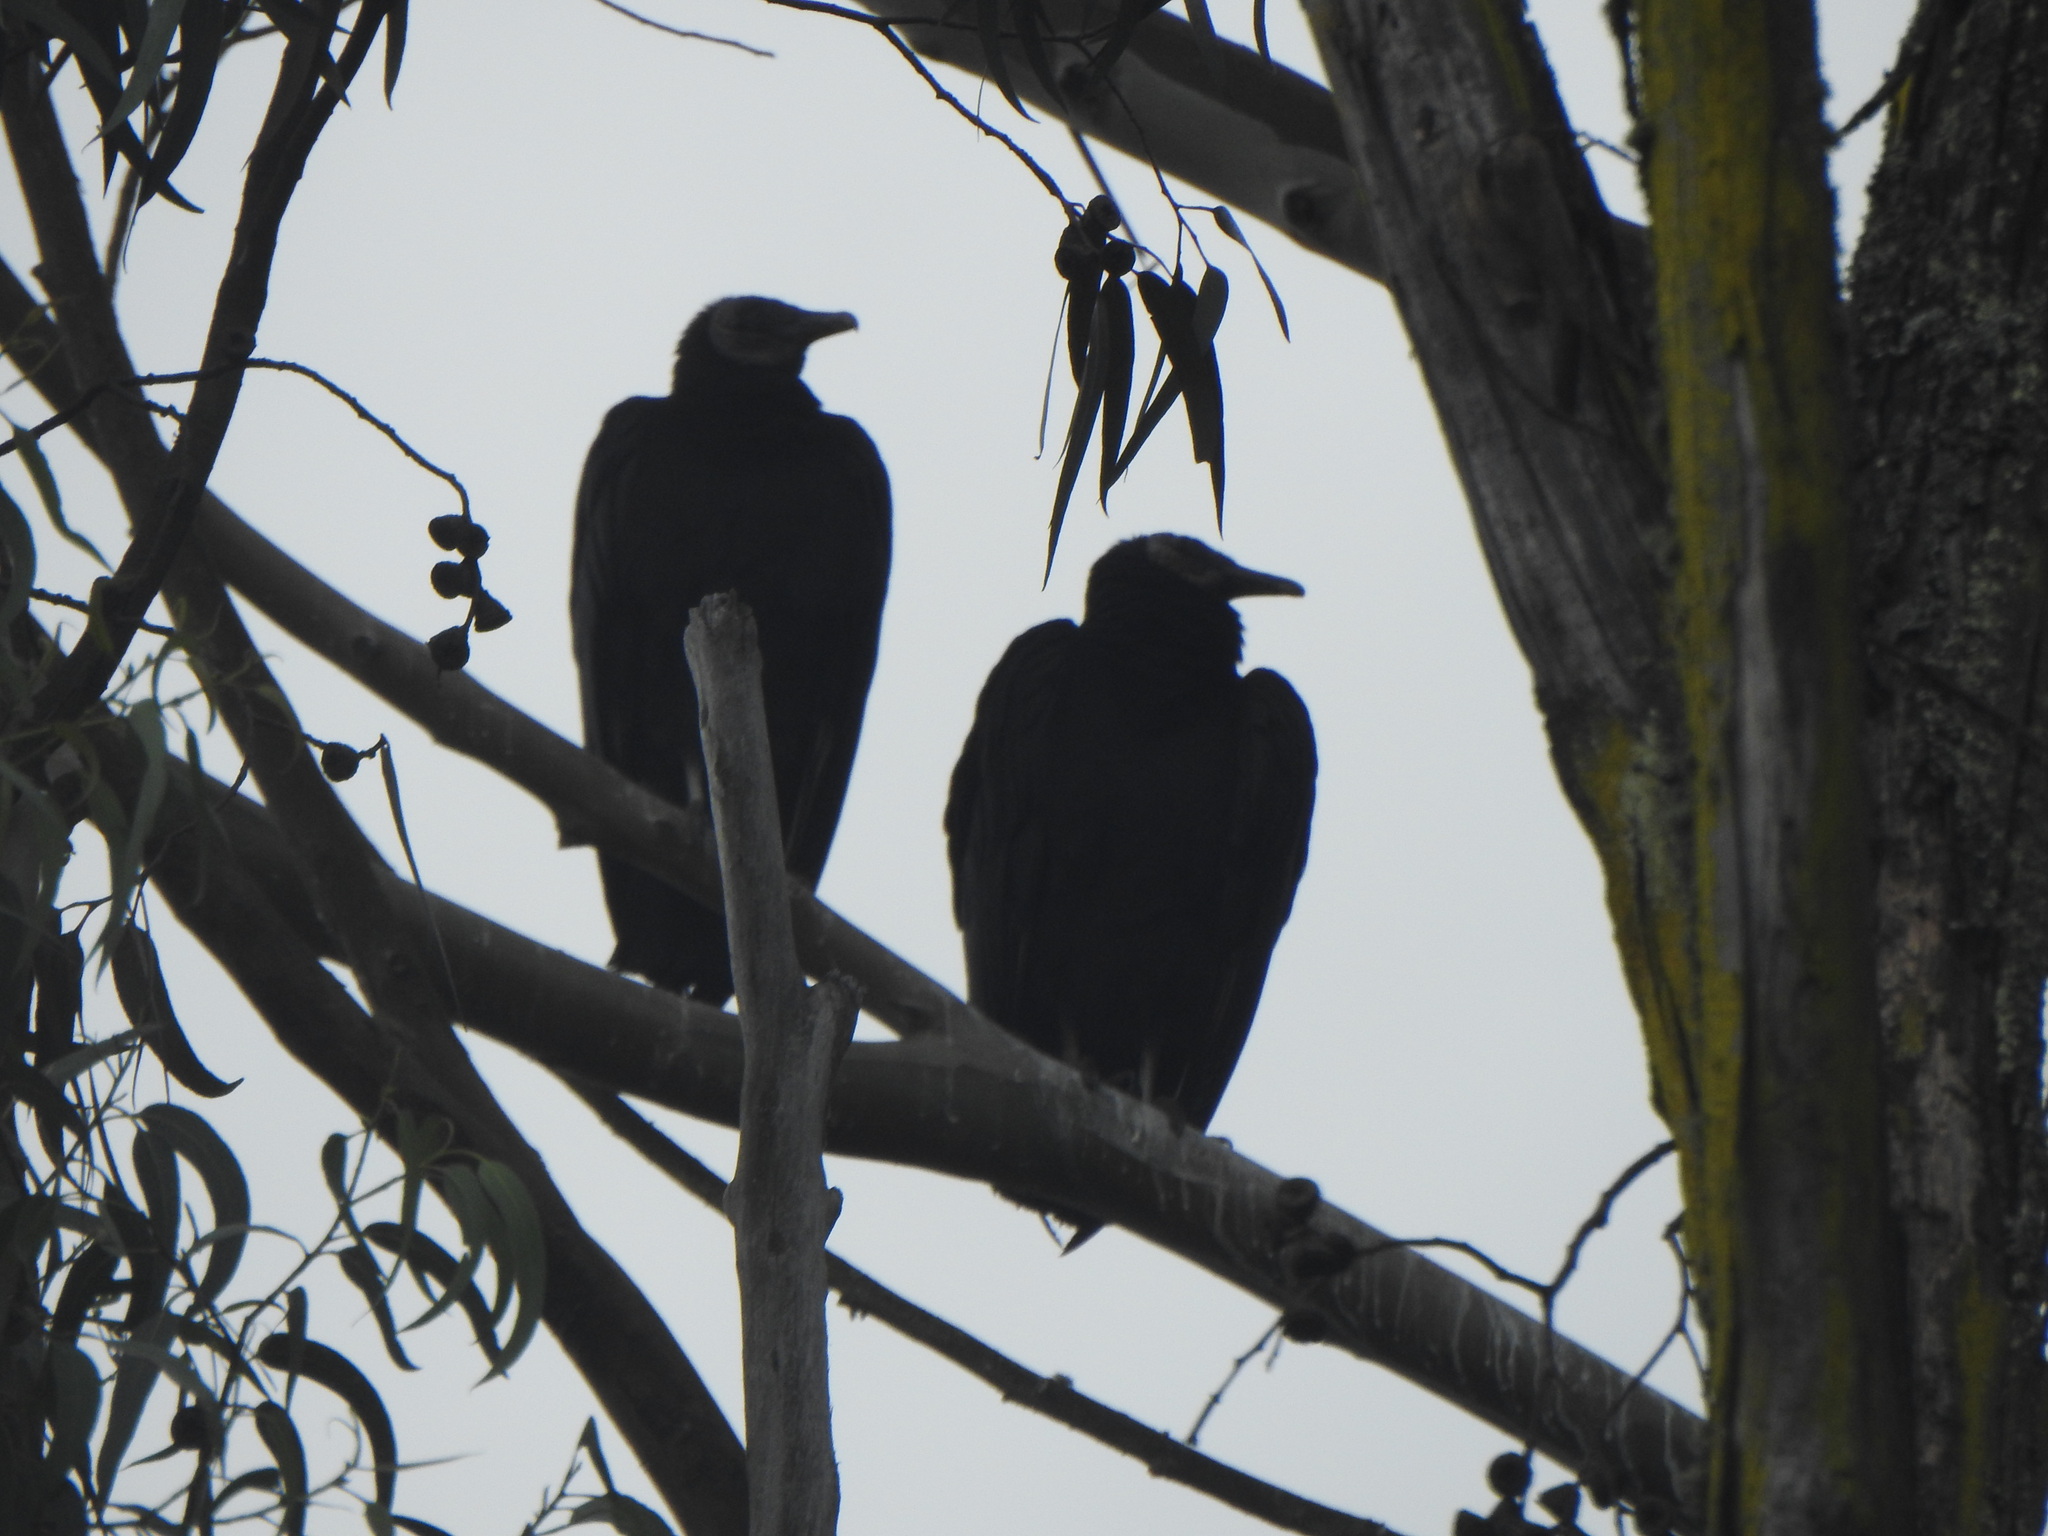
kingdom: Animalia
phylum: Chordata
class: Aves
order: Accipitriformes
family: Cathartidae
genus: Coragyps
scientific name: Coragyps atratus
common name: Black vulture
